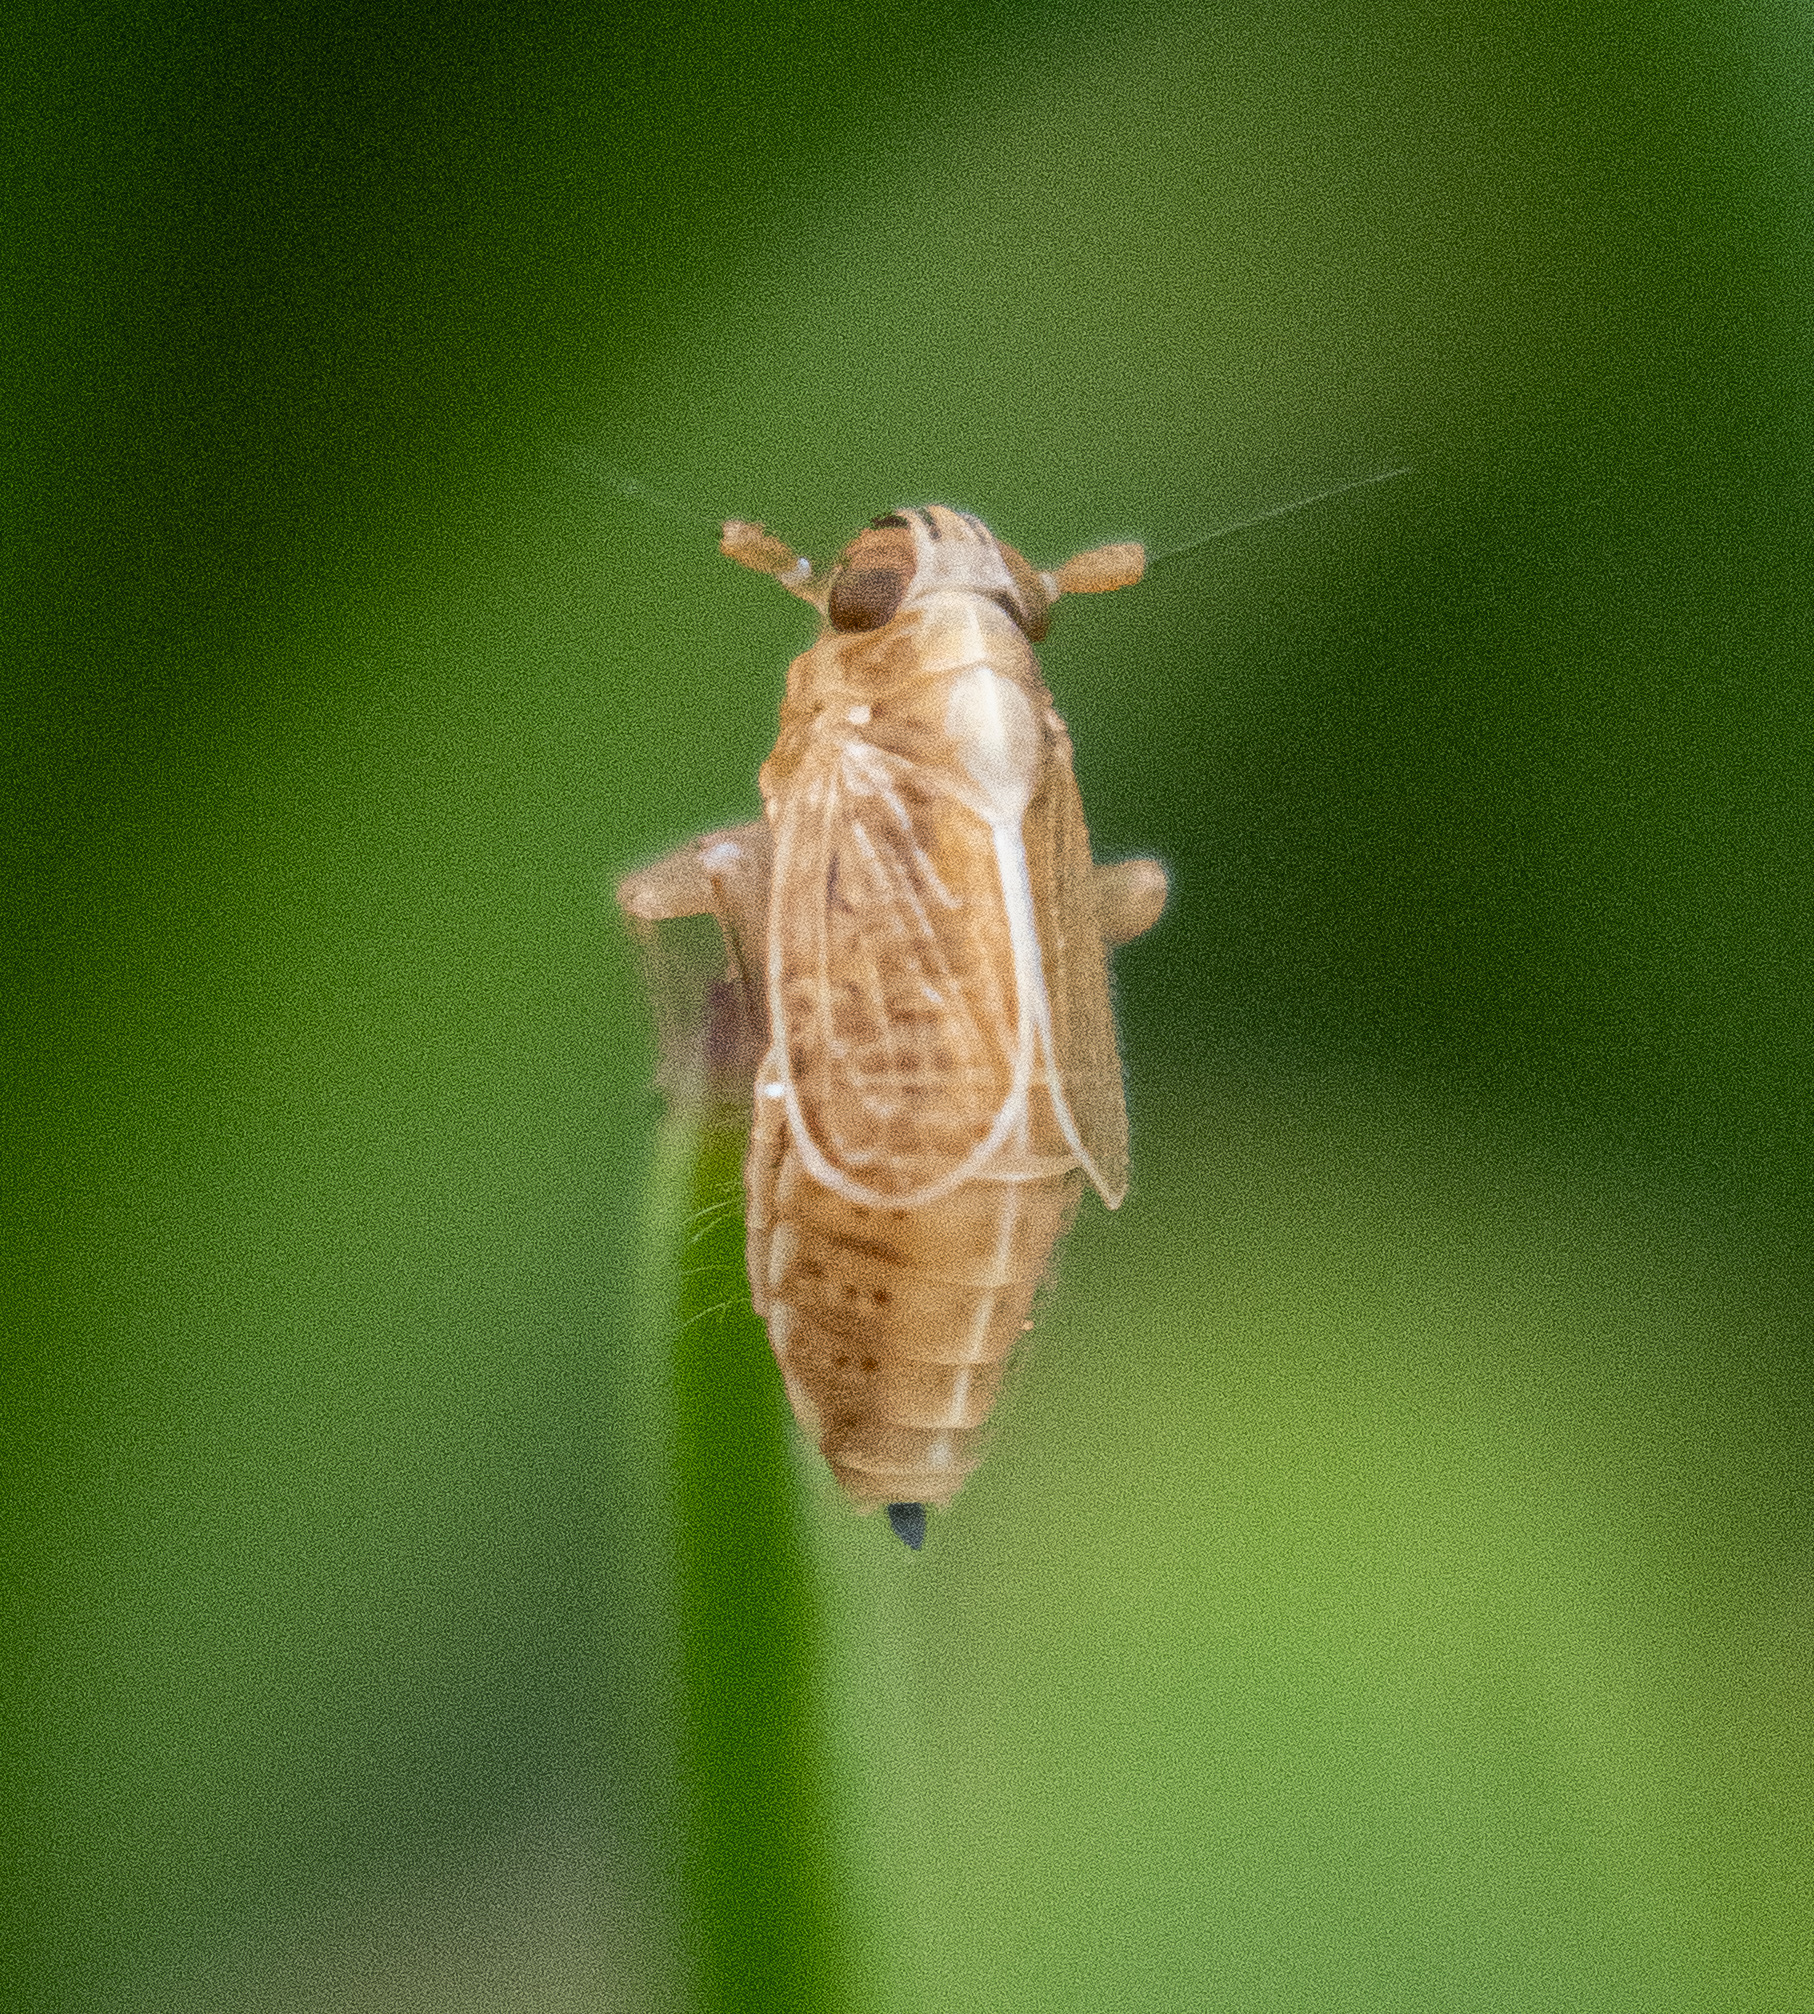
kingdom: Animalia
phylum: Arthropoda
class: Insecta
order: Hemiptera
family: Delphacidae
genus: Muellerianella
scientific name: Muellerianella laminalis
